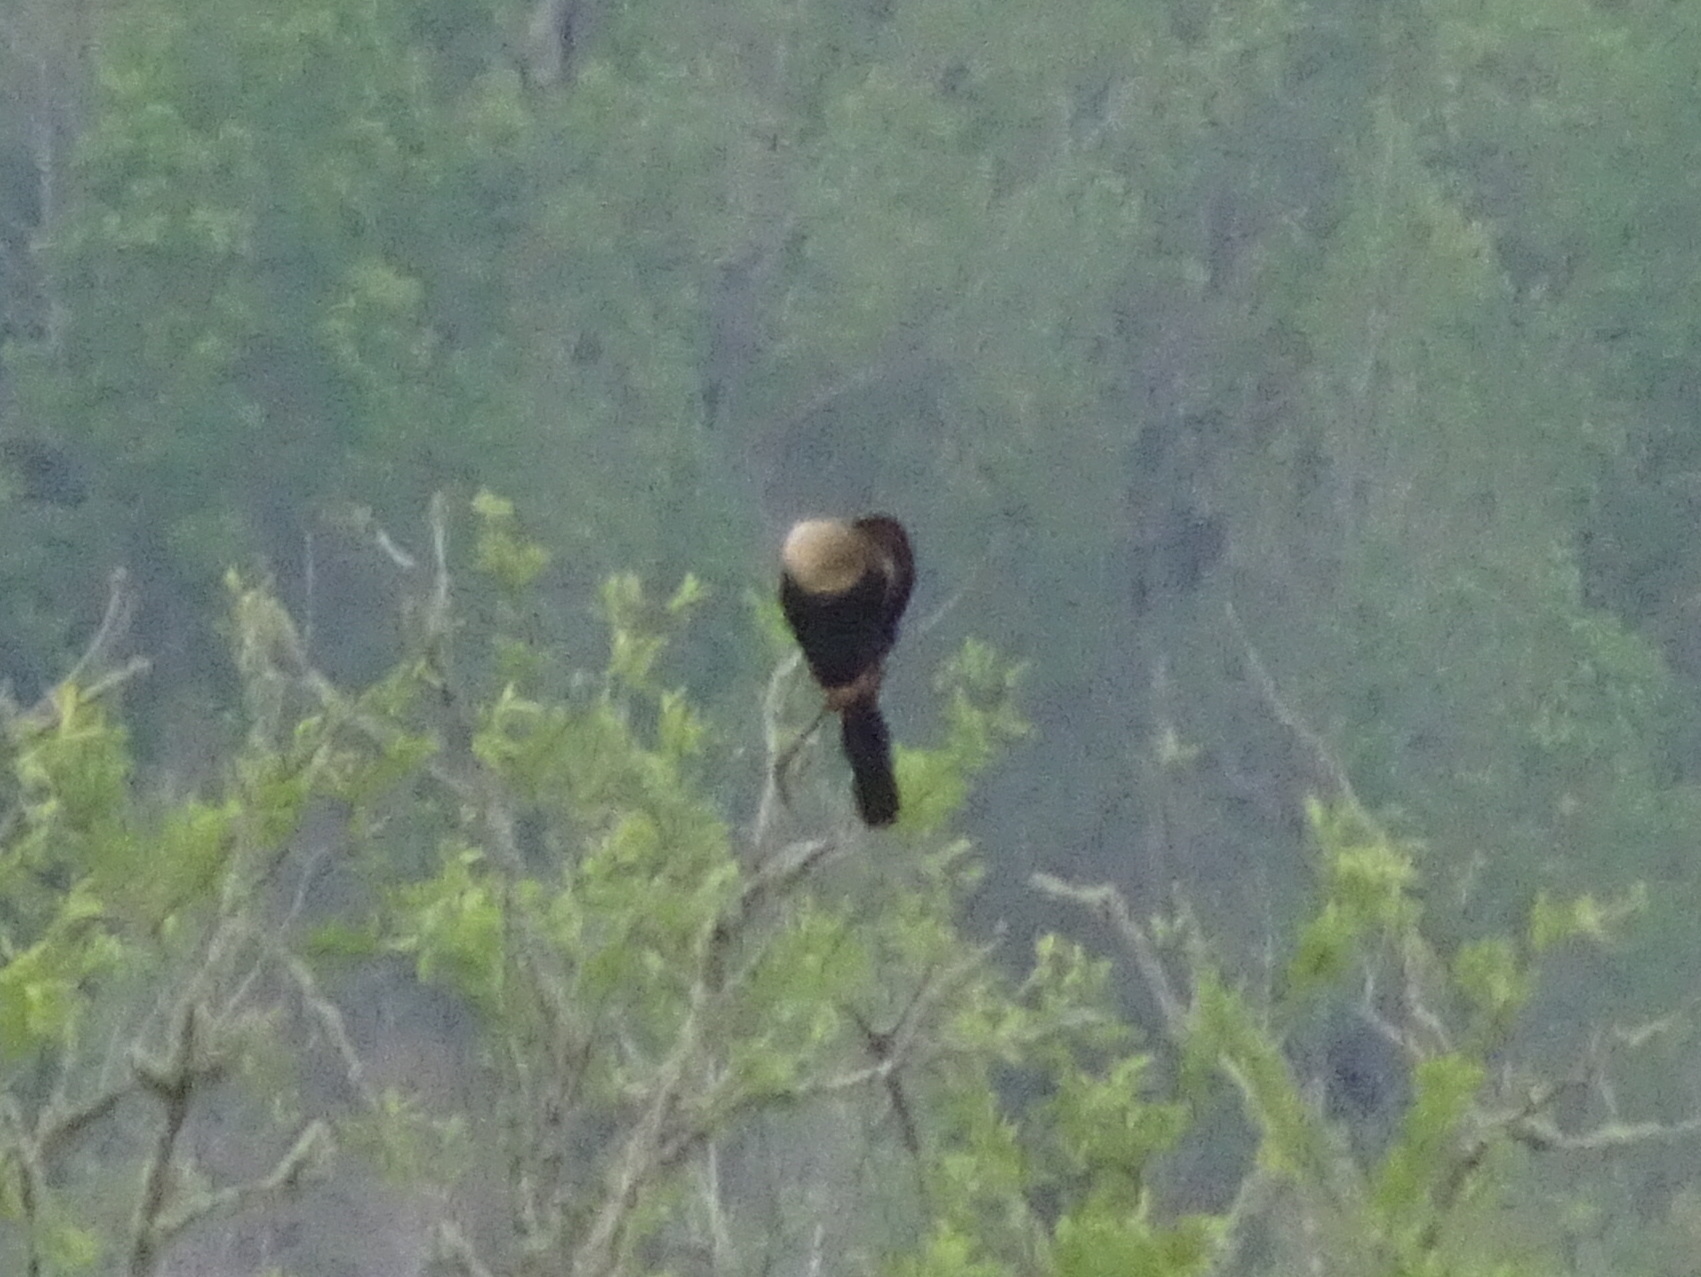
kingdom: Animalia
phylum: Chordata
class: Aves
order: Suliformes
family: Anhingidae
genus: Anhinga
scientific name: Anhinga anhinga
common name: Anhinga
